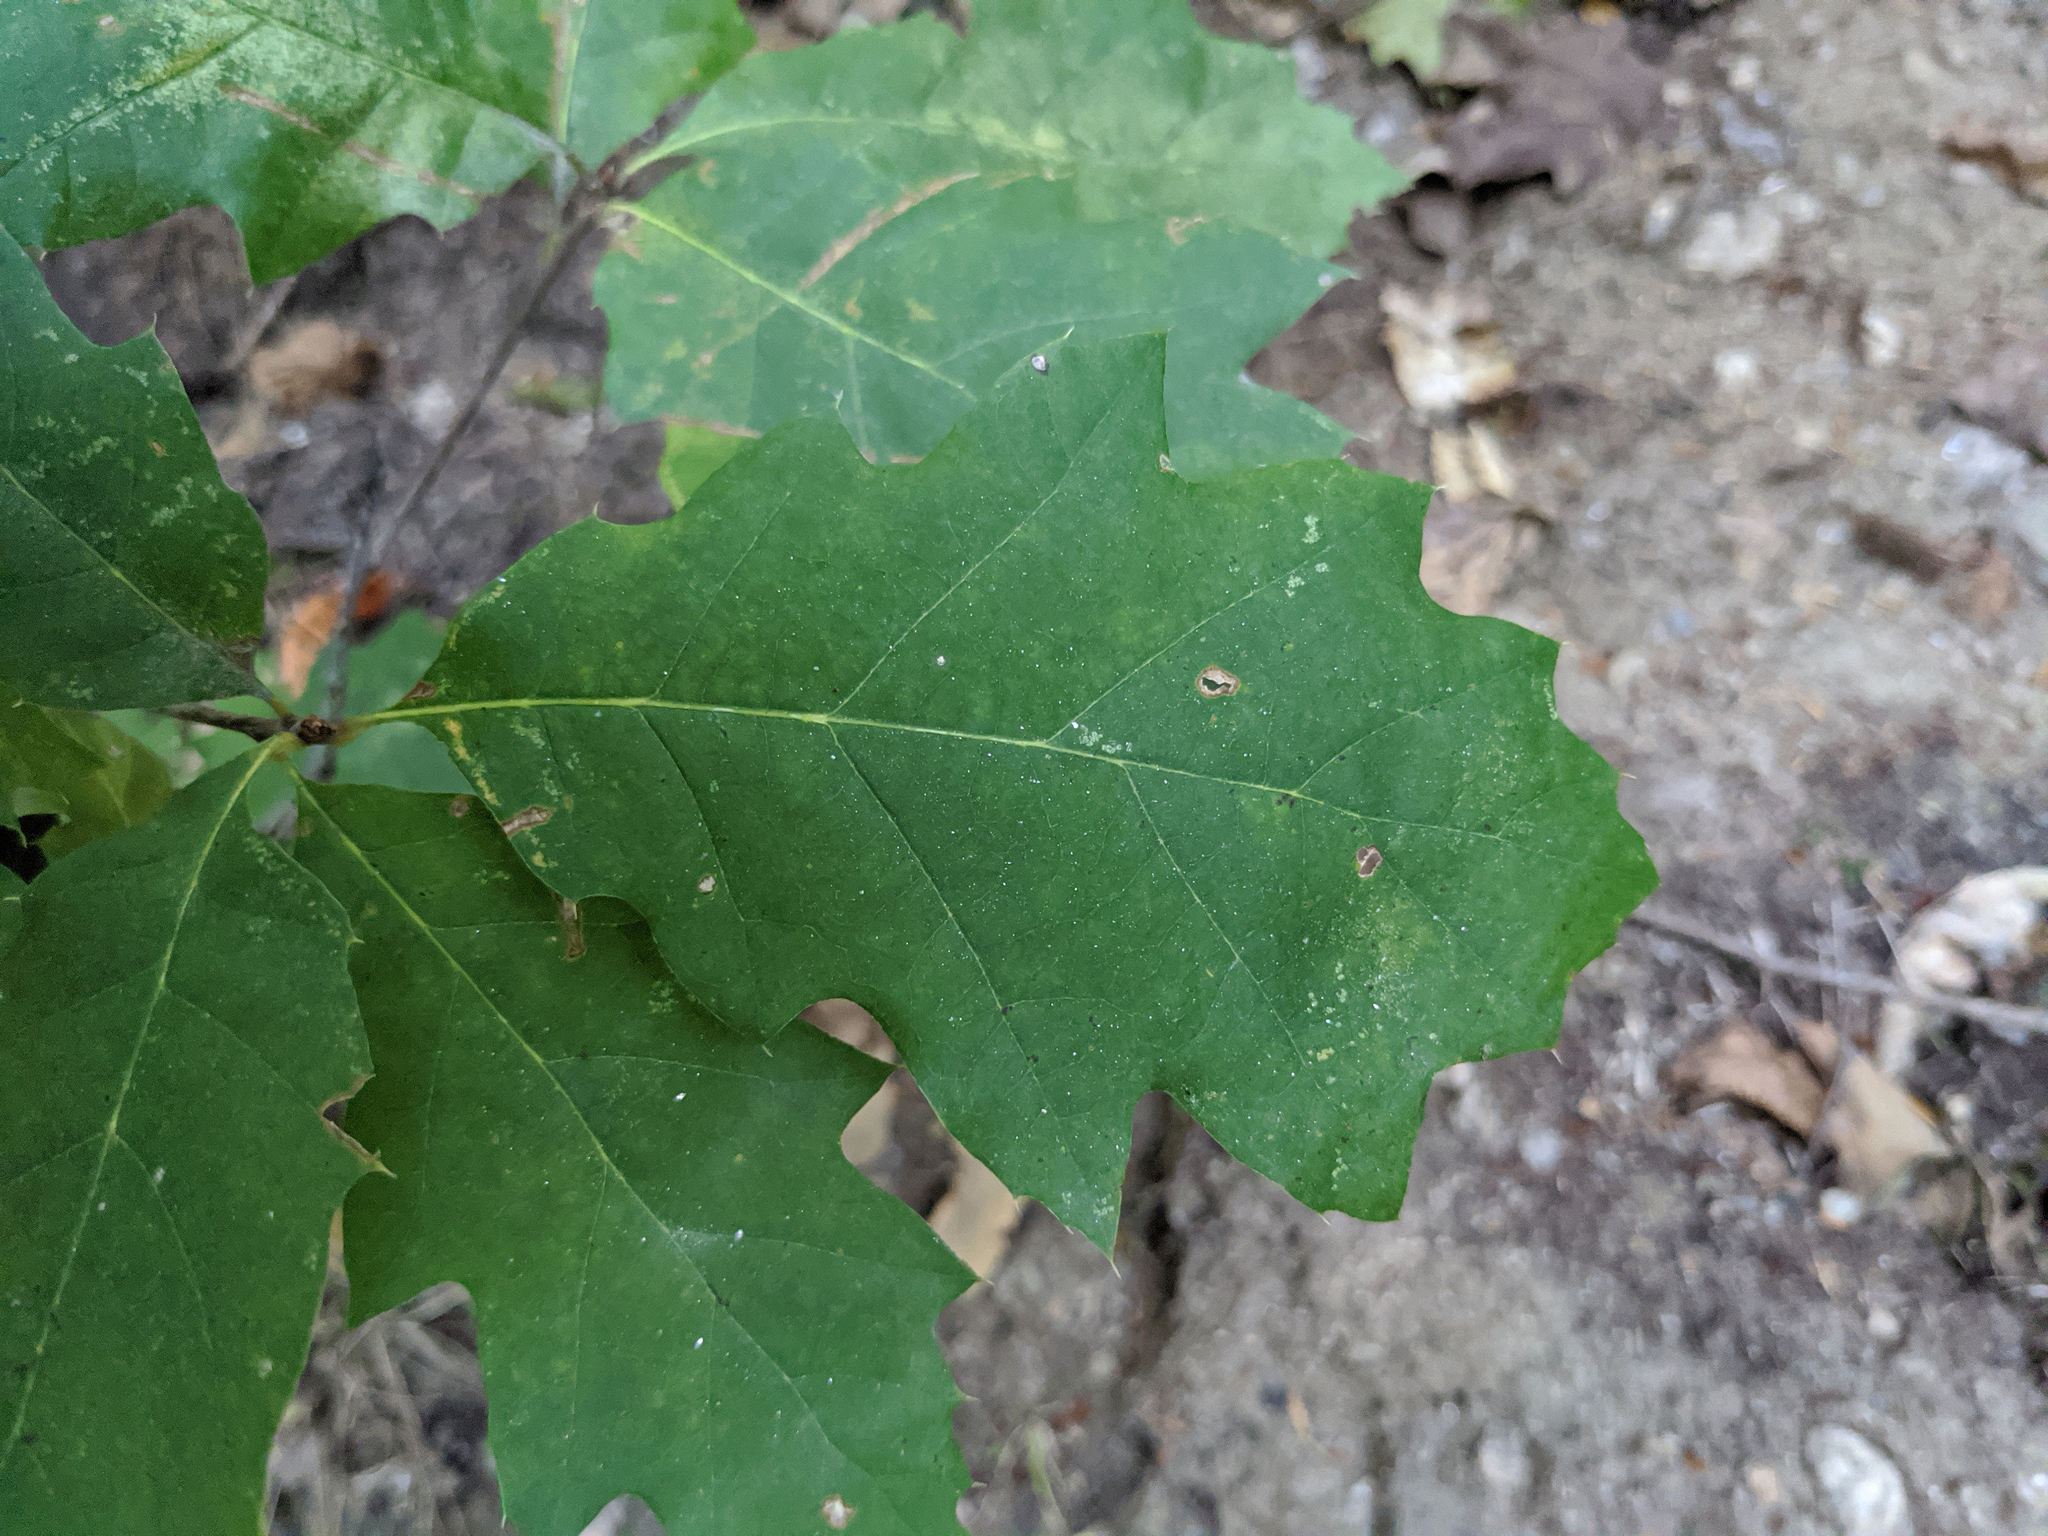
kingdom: Plantae
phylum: Tracheophyta
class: Magnoliopsida
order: Fagales
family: Fagaceae
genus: Quercus
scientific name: Quercus rubra
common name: Red oak
